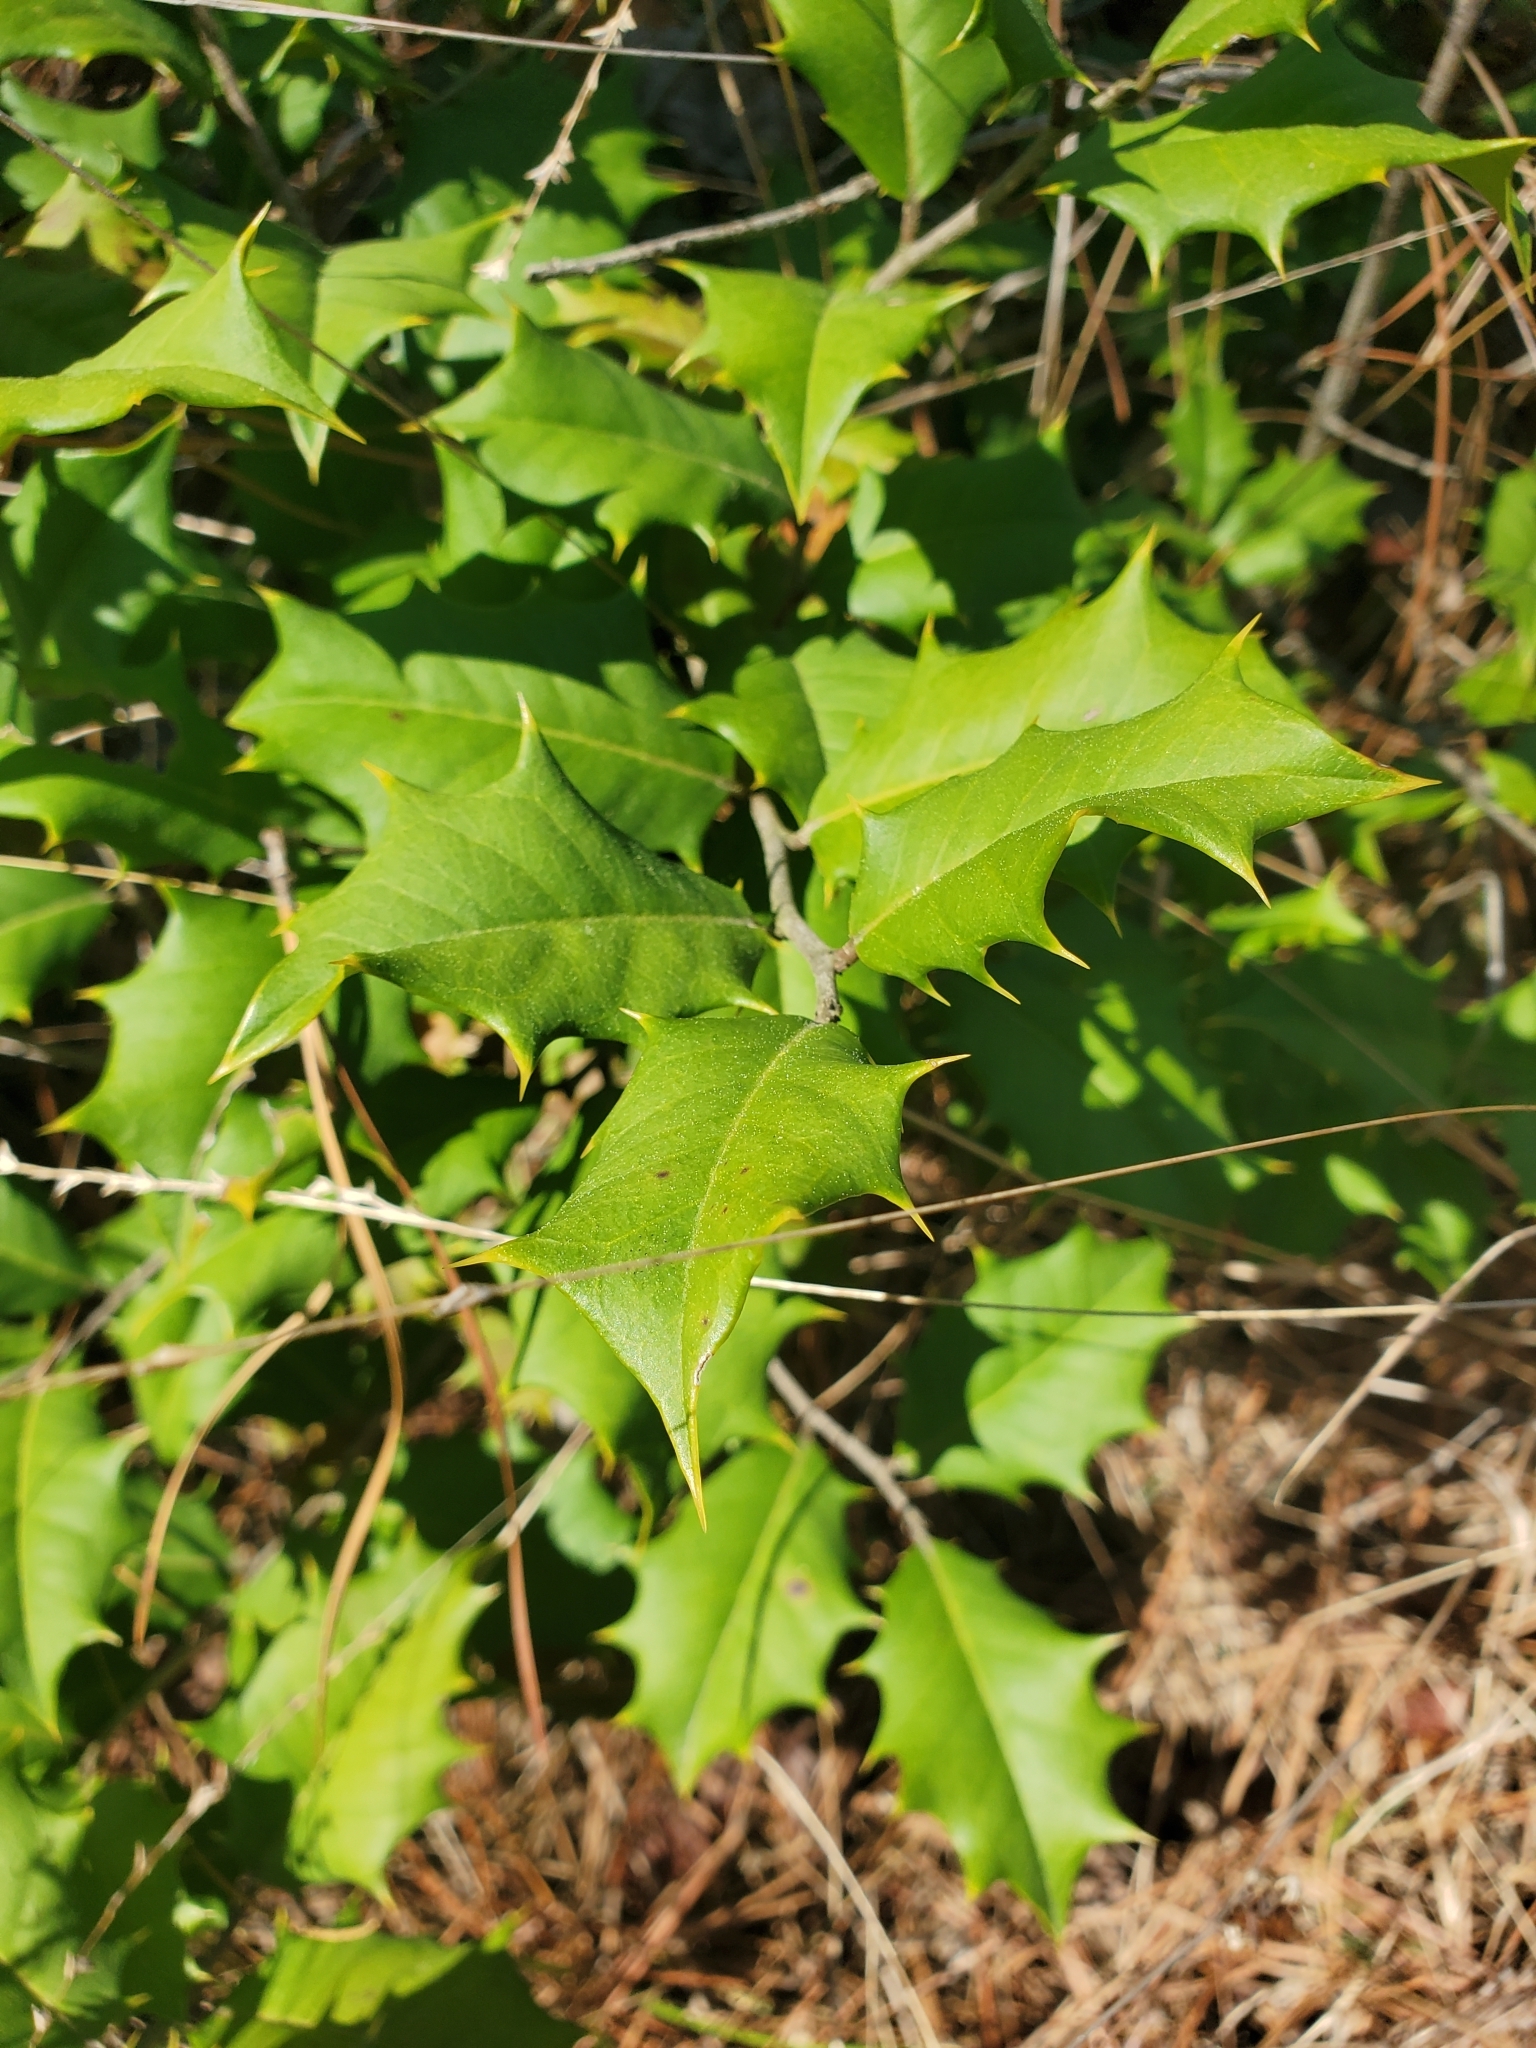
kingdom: Plantae
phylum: Tracheophyta
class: Magnoliopsida
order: Aquifoliales
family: Aquifoliaceae
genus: Ilex
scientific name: Ilex opaca
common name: American holly
